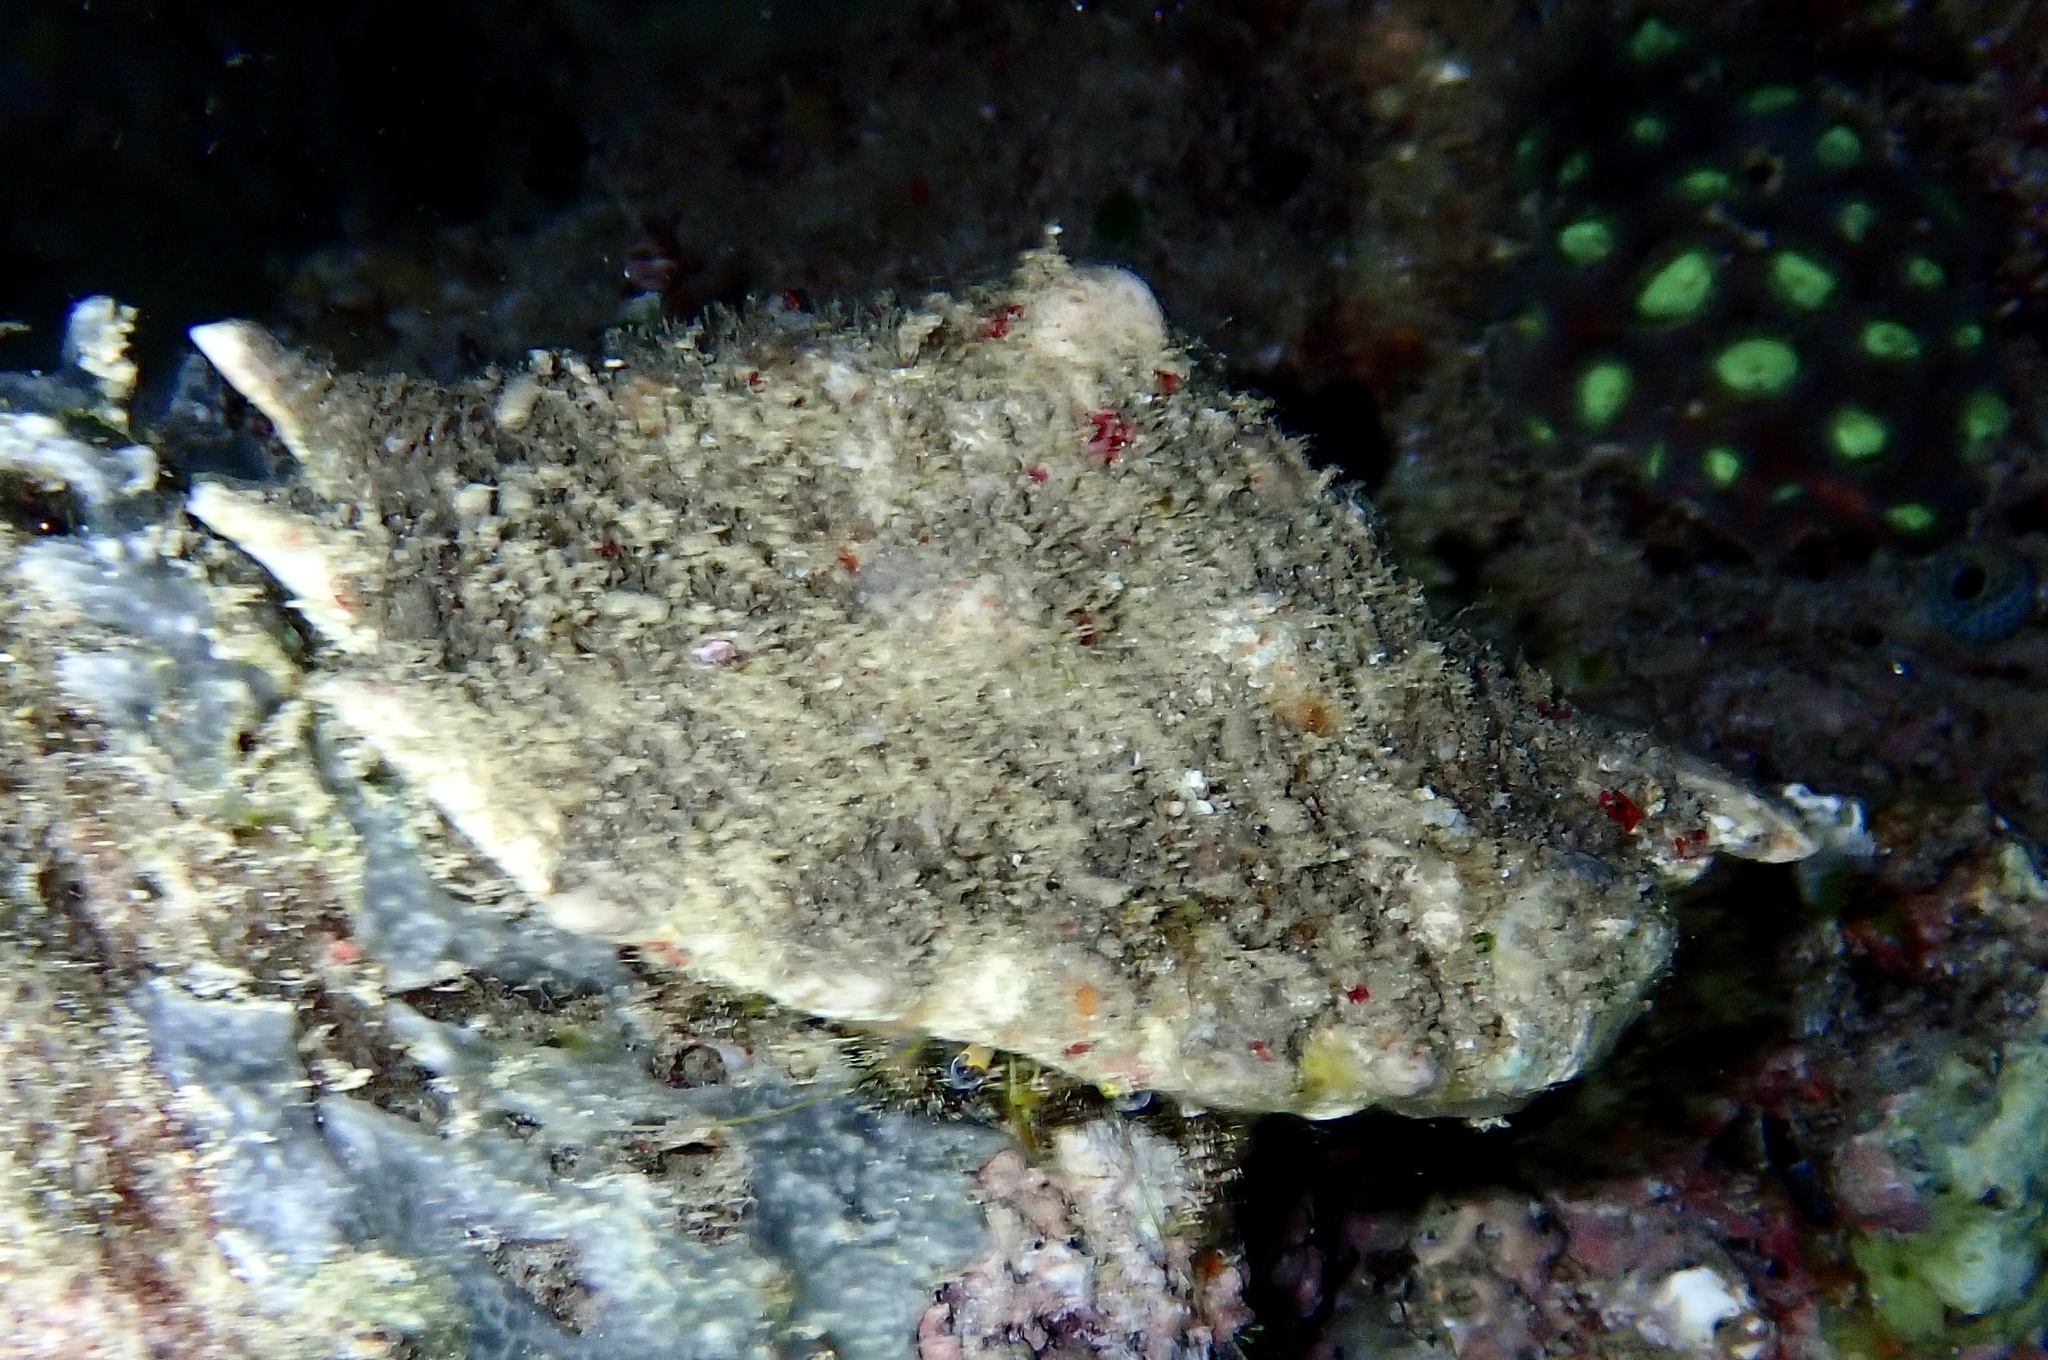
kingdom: Animalia
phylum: Arthropoda
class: Malacostraca
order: Decapoda
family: Diogenidae
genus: Dardanus
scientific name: Dardanus lagopodes
